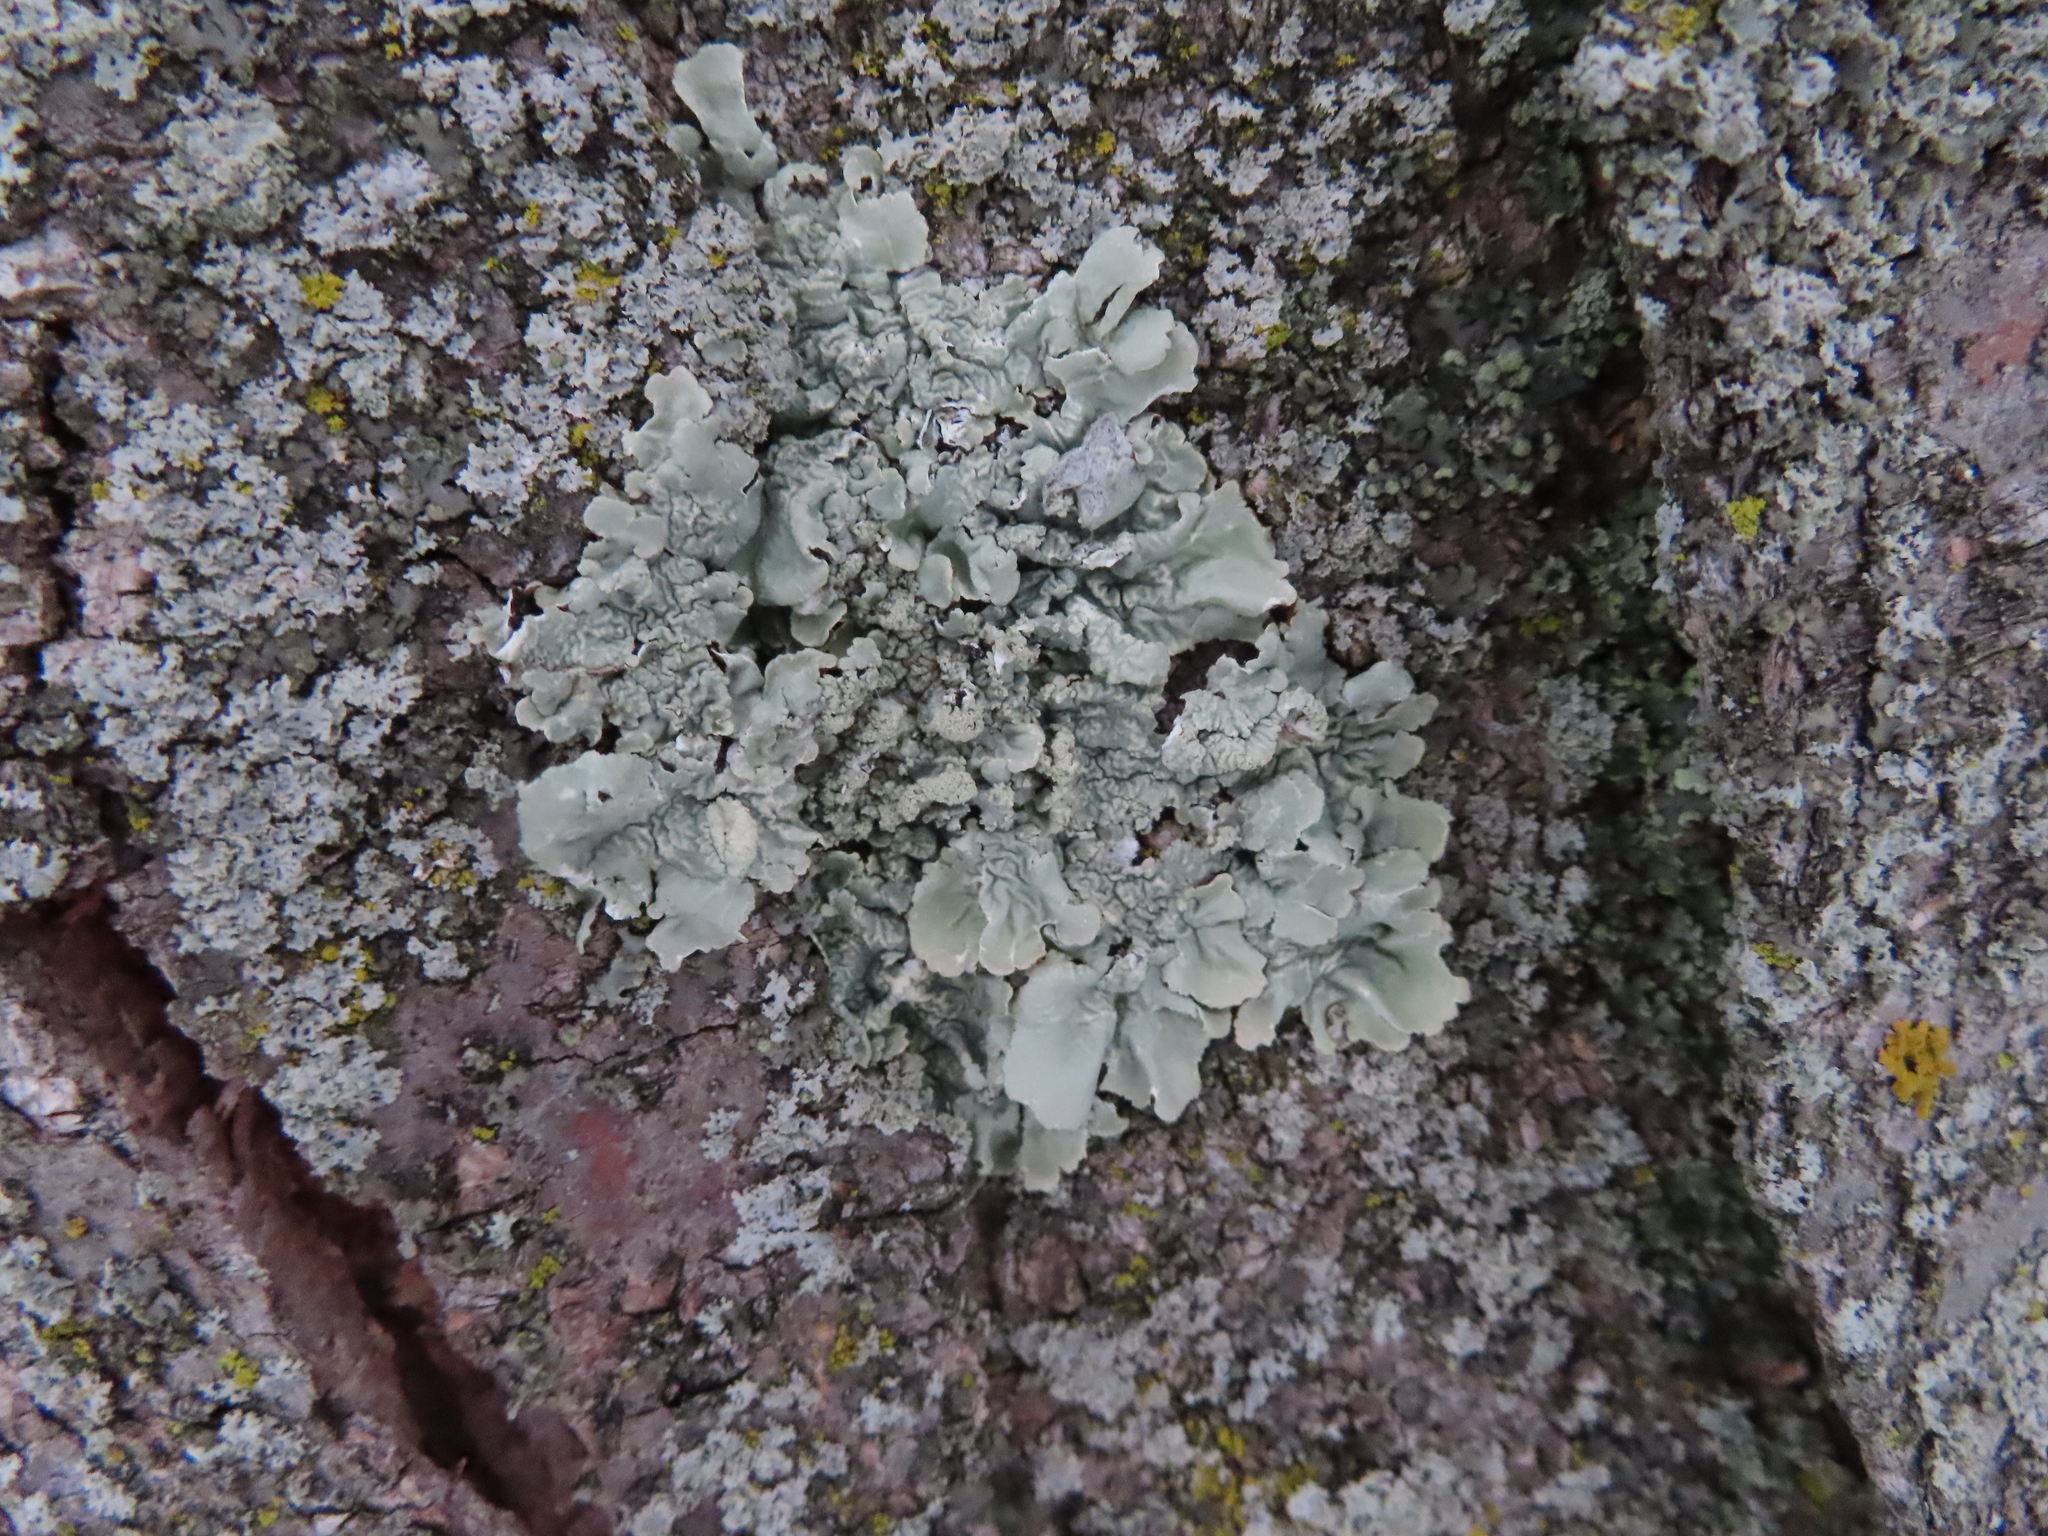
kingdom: Fungi
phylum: Ascomycota
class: Lecanoromycetes
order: Lecanorales
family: Parmeliaceae
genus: Flavoparmelia
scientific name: Flavoparmelia caperata
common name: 40-mile per hour lichen
